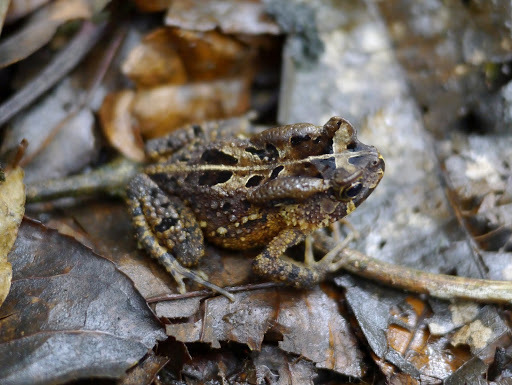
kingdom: Animalia
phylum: Chordata
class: Amphibia
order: Anura
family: Bufonidae
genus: Sclerophrys
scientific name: Sclerophrys camerunensis
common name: Cameroon toad
